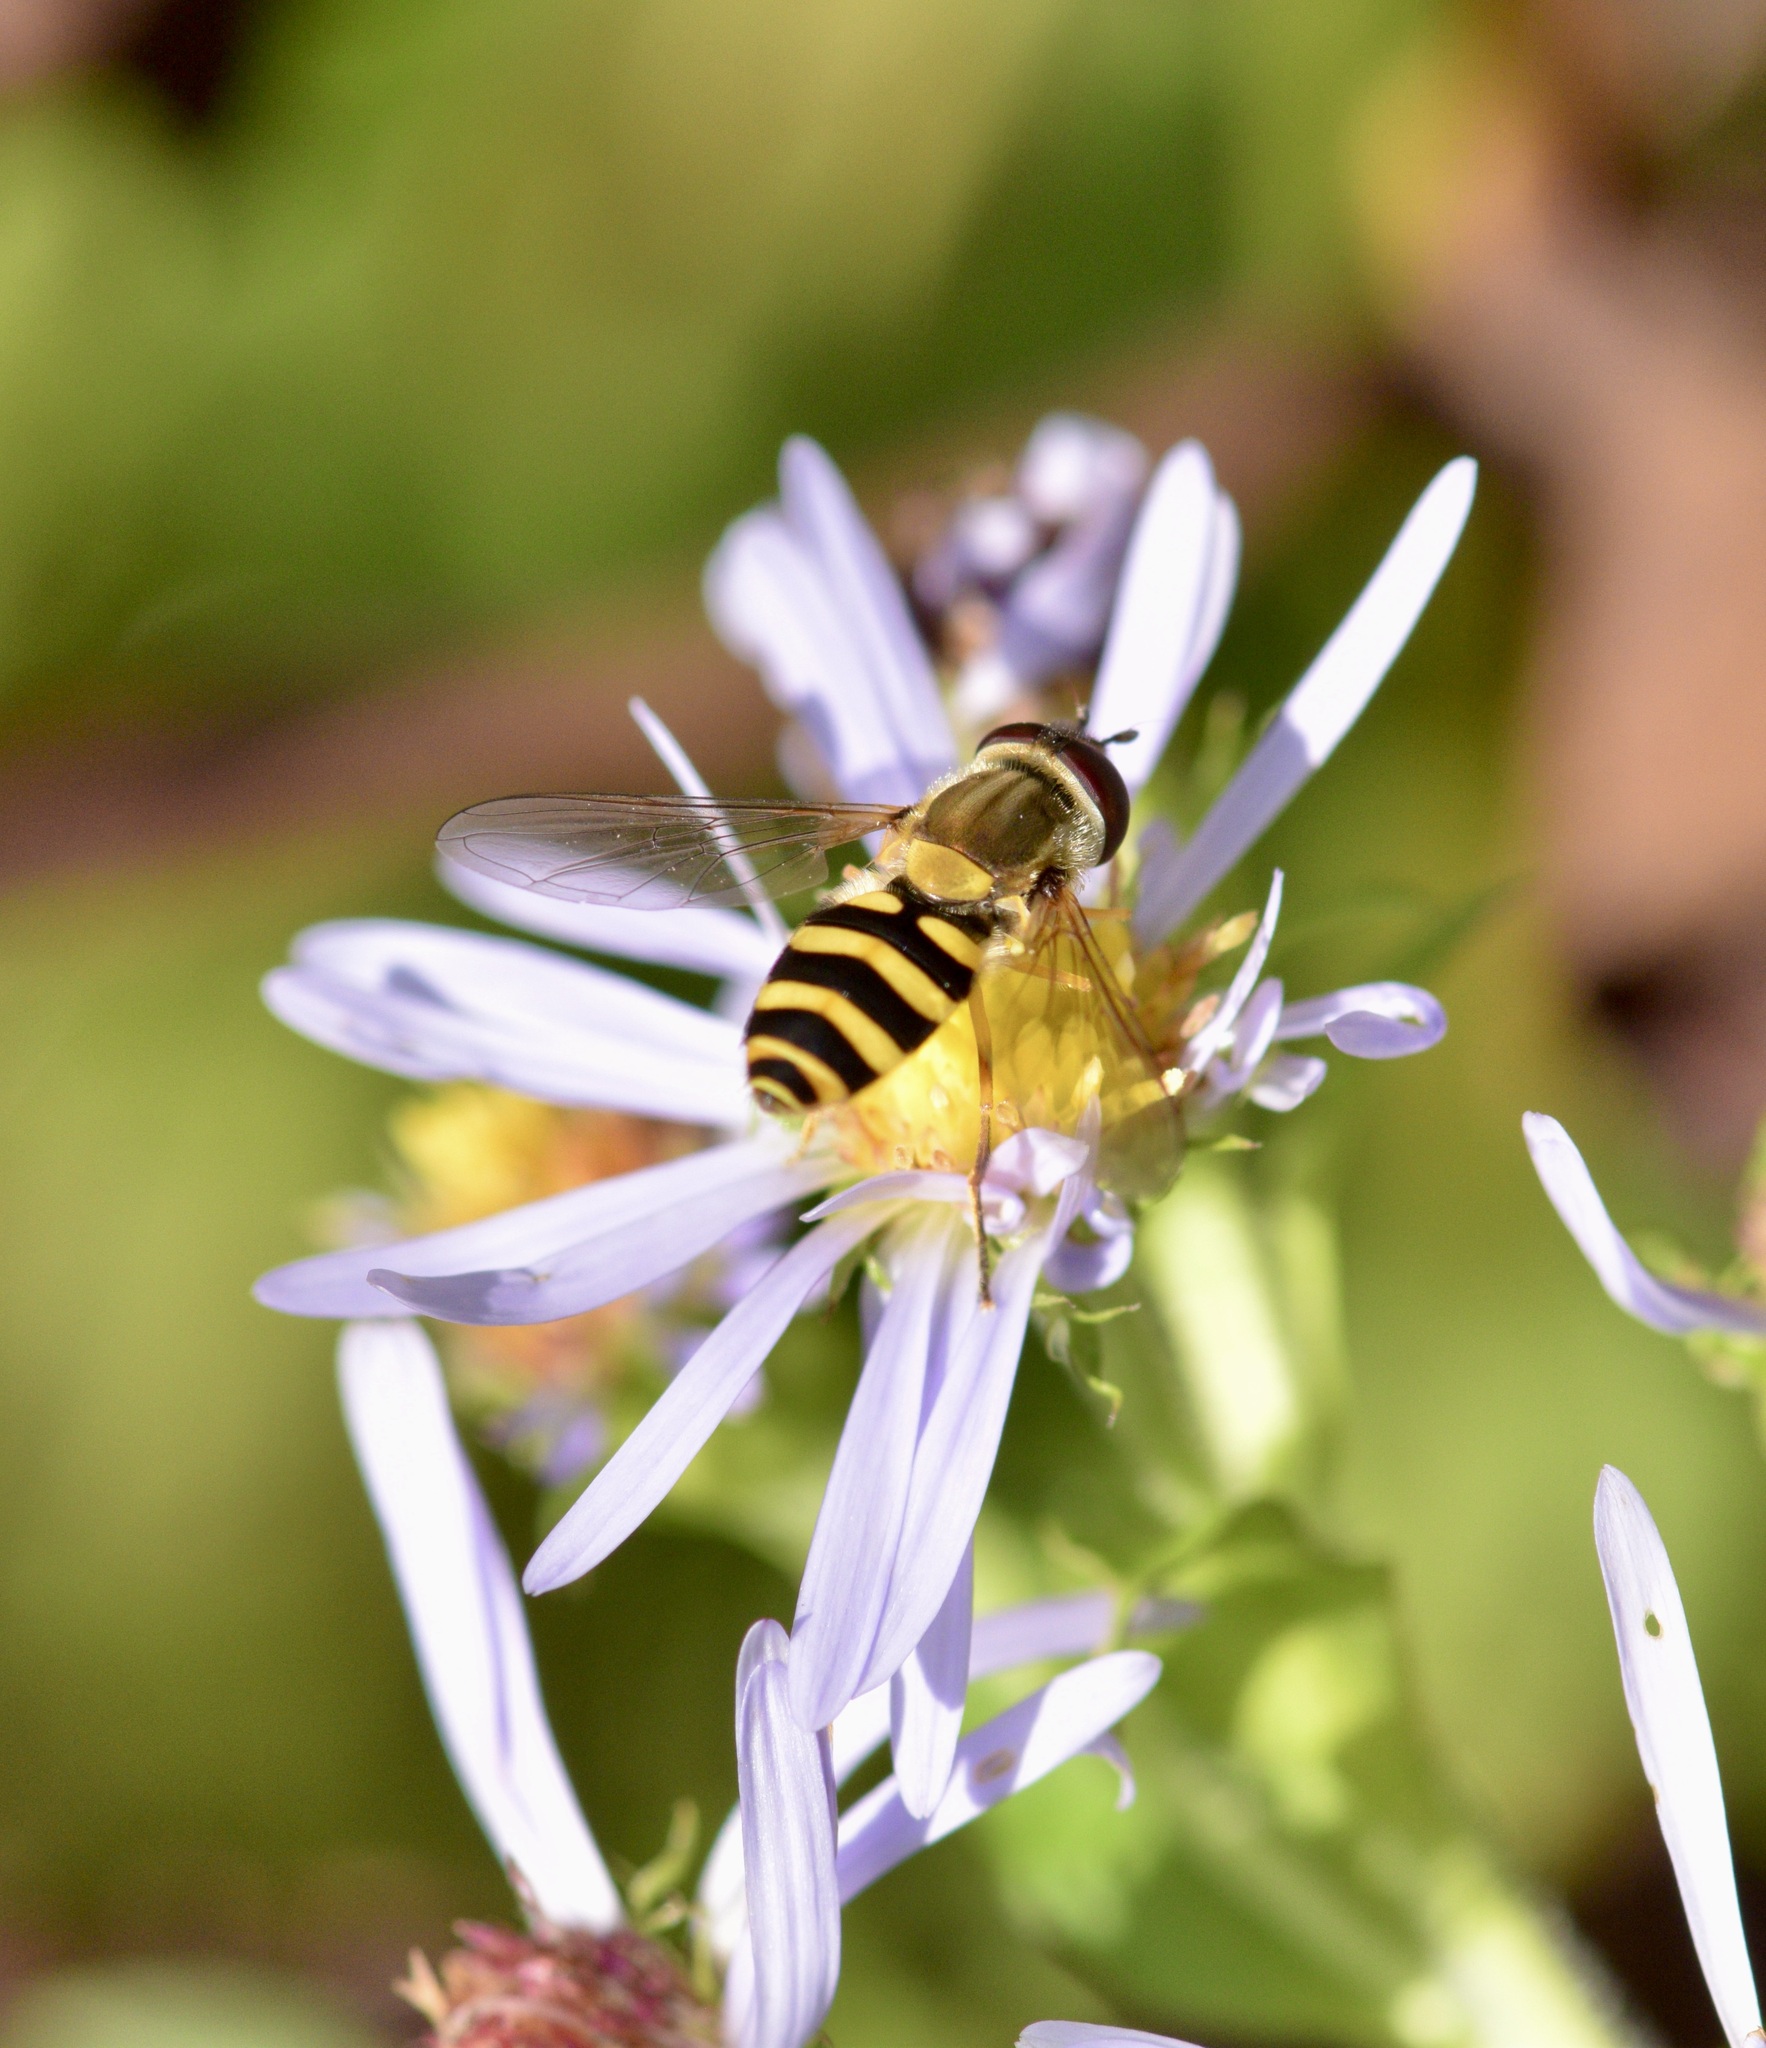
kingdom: Animalia
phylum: Arthropoda
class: Insecta
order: Diptera
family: Syrphidae
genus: Syrphus
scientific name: Syrphus rectus
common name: Yellow-legged flower fly
